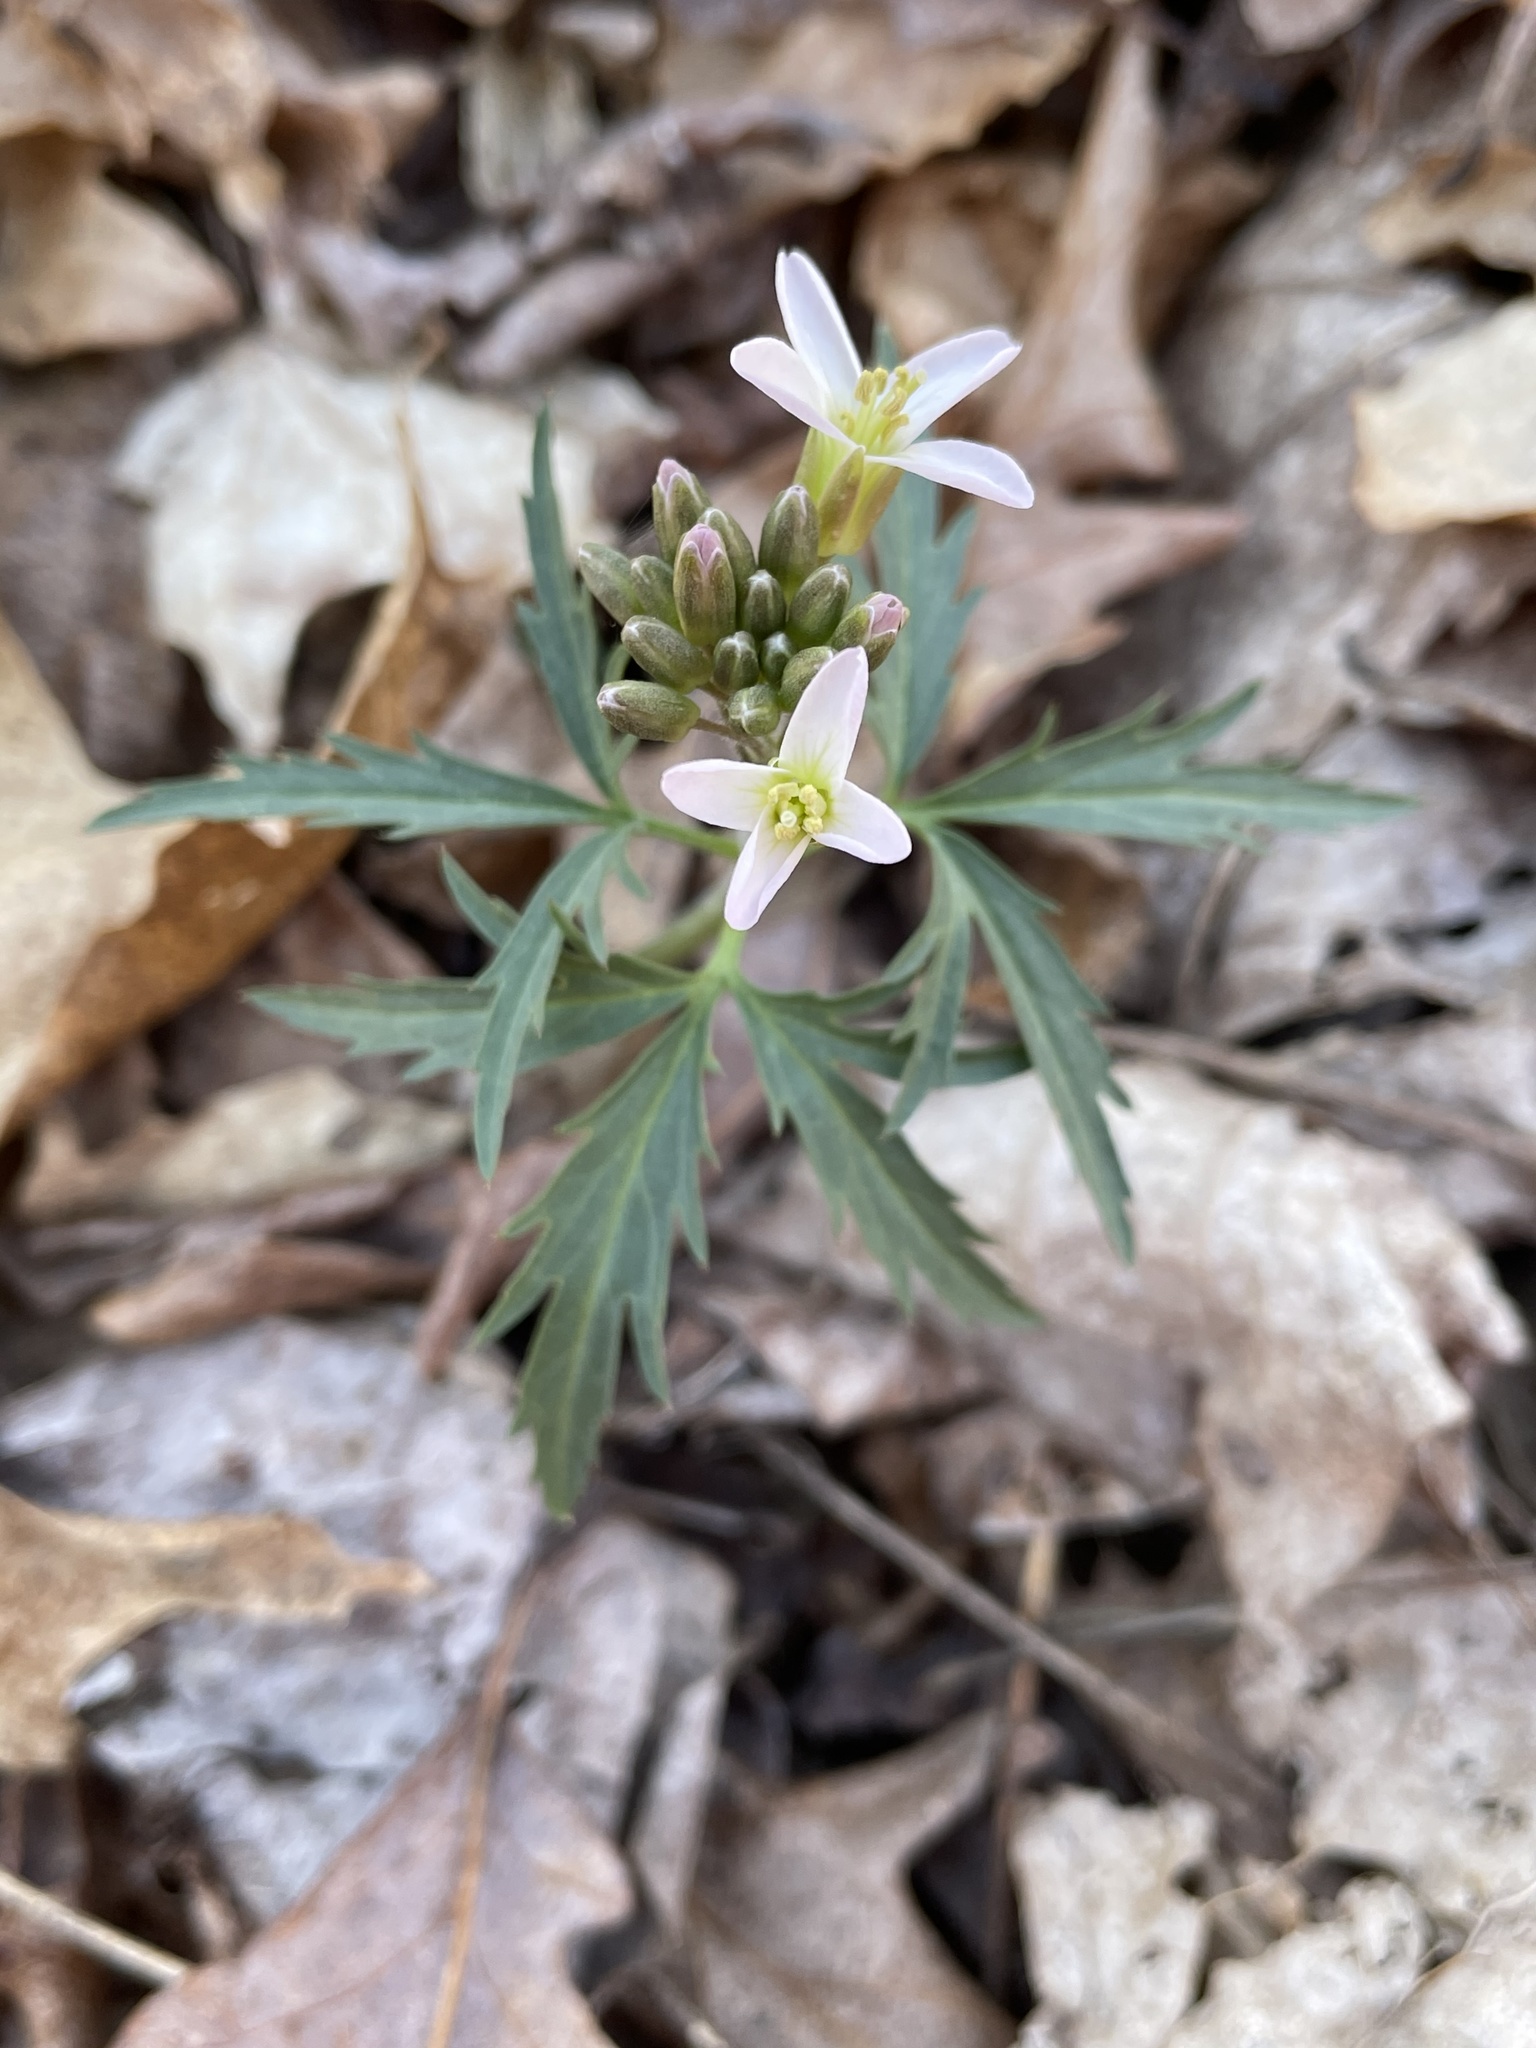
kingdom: Plantae
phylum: Tracheophyta
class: Magnoliopsida
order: Brassicales
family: Brassicaceae
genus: Cardamine
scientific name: Cardamine concatenata
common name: Cut-leaf toothcup
